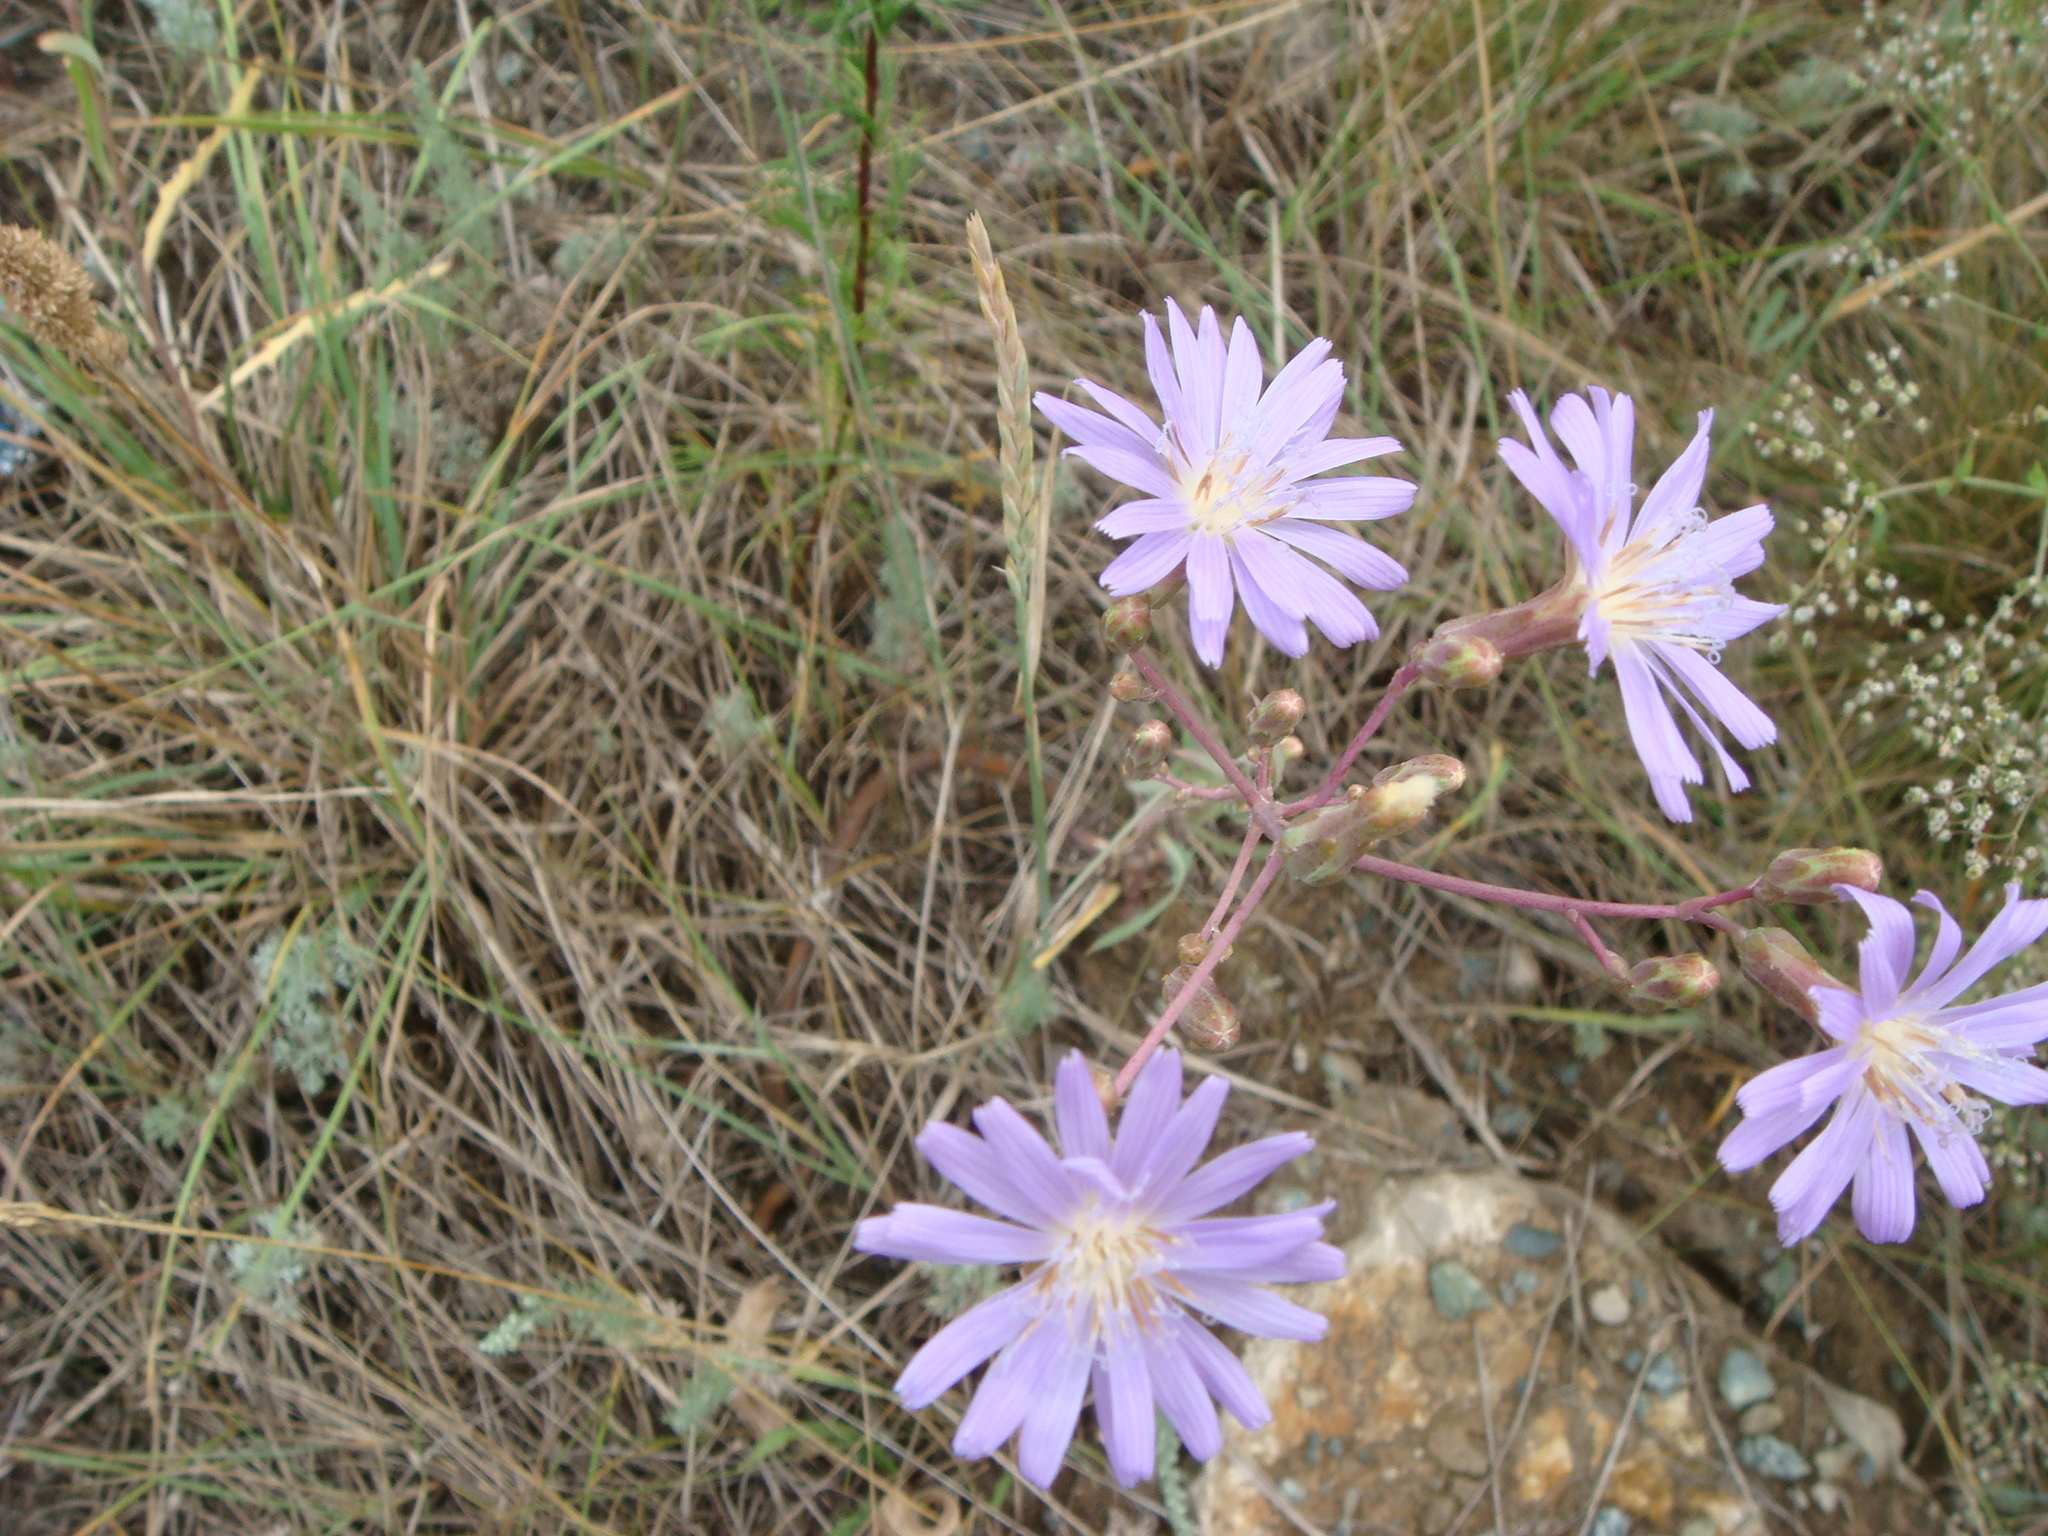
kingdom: Plantae
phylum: Tracheophyta
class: Magnoliopsida
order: Asterales
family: Asteraceae
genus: Lactuca
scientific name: Lactuca tatarica
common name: Blue lettuce
